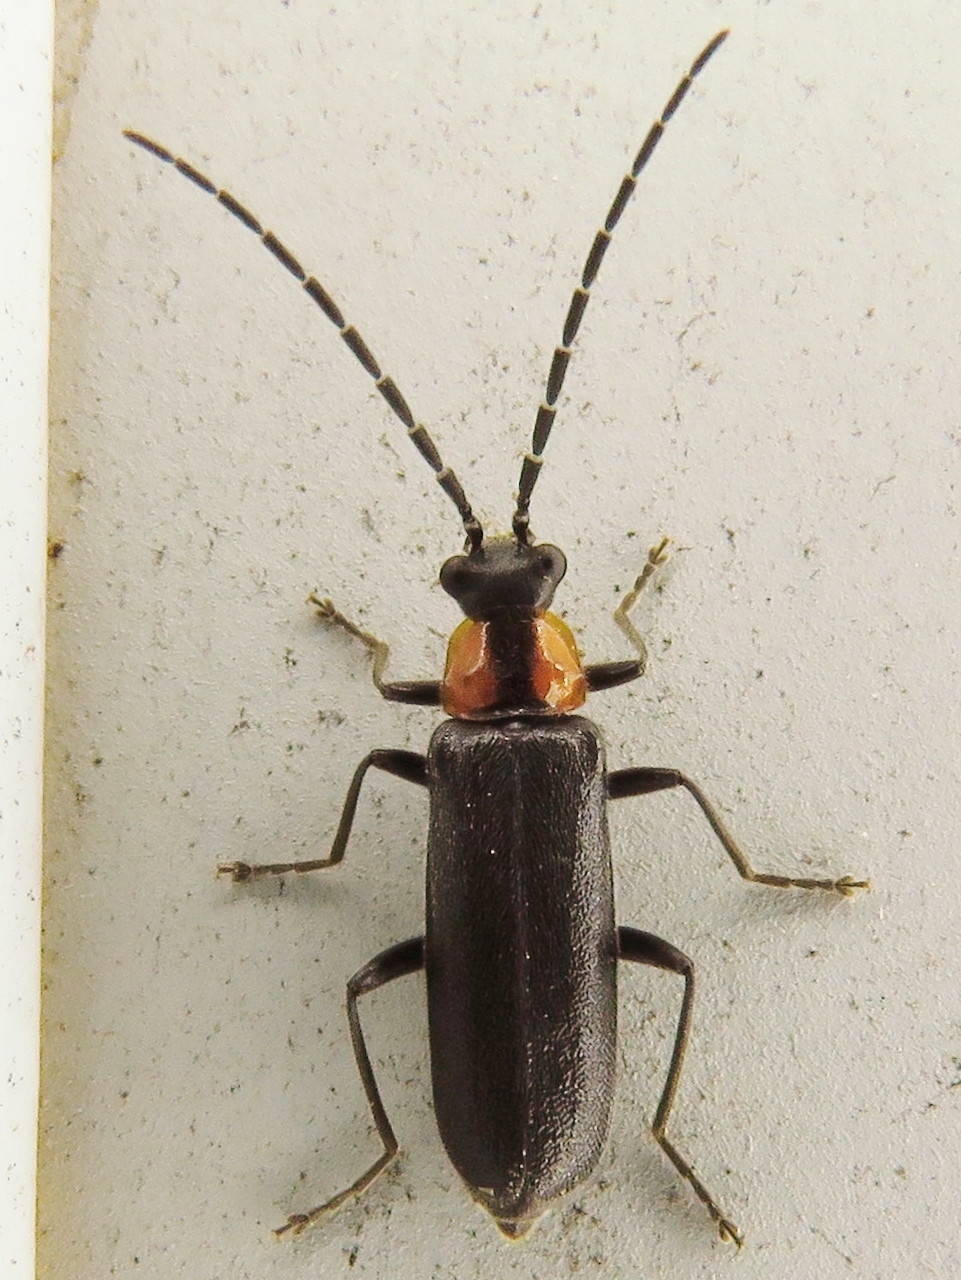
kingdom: Animalia
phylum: Arthropoda
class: Insecta
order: Coleoptera
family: Cantharidae
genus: Rhagonycha
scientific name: Rhagonycha lineola
